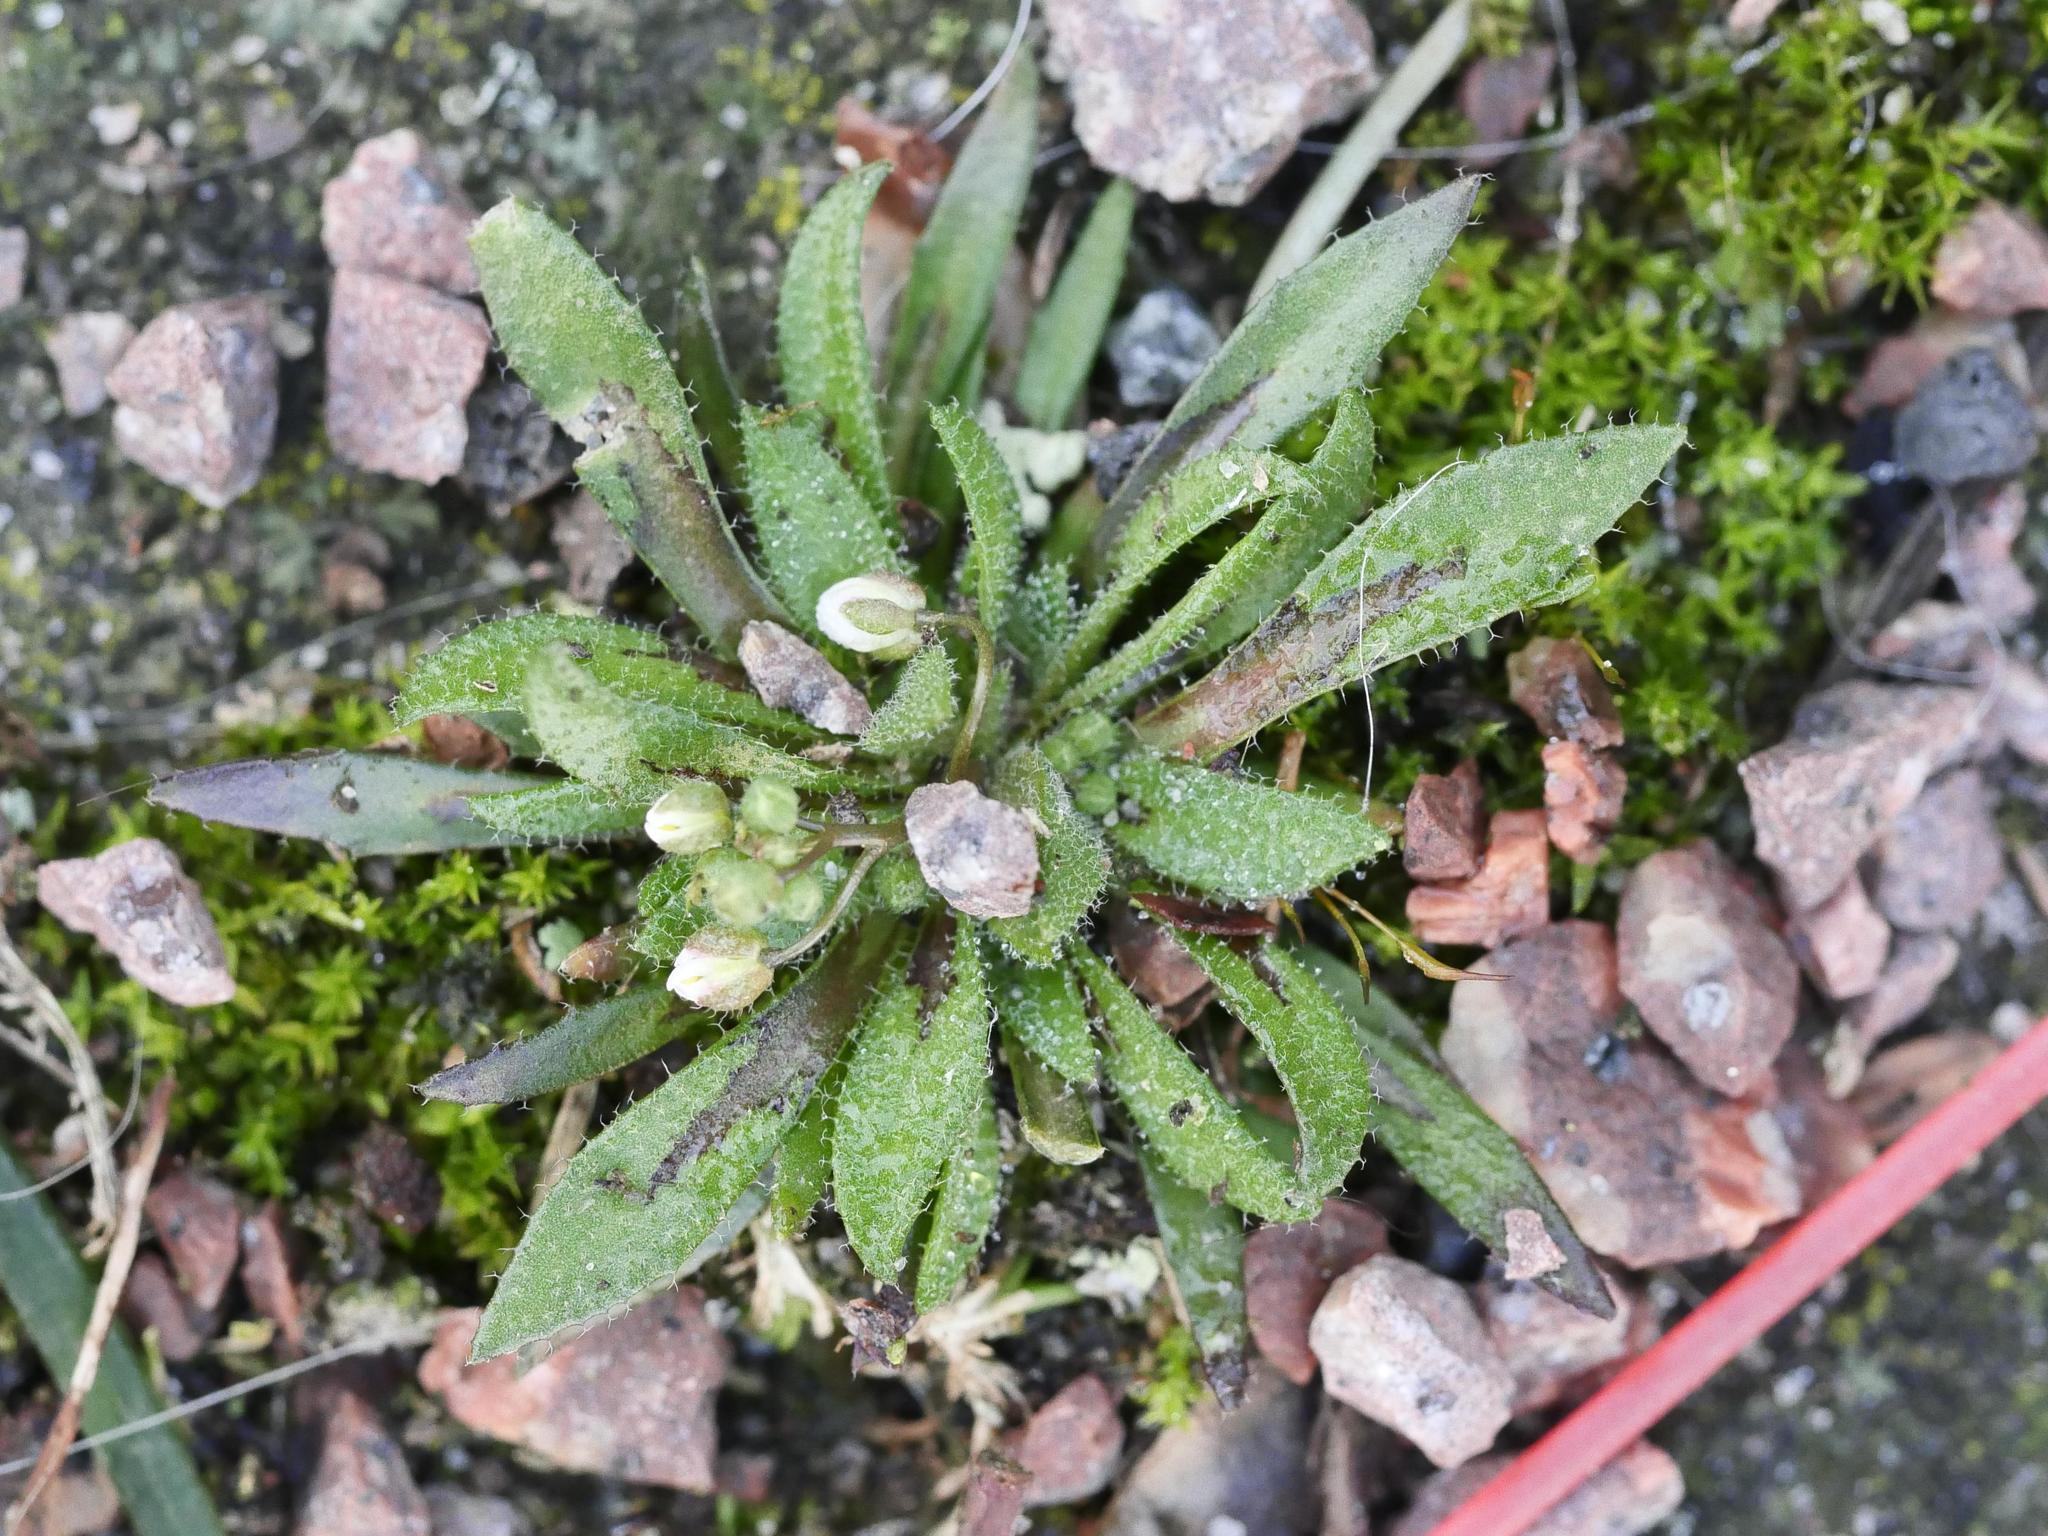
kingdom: Plantae
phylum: Tracheophyta
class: Magnoliopsida
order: Brassicales
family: Brassicaceae
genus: Draba
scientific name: Draba verna
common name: Spring draba
